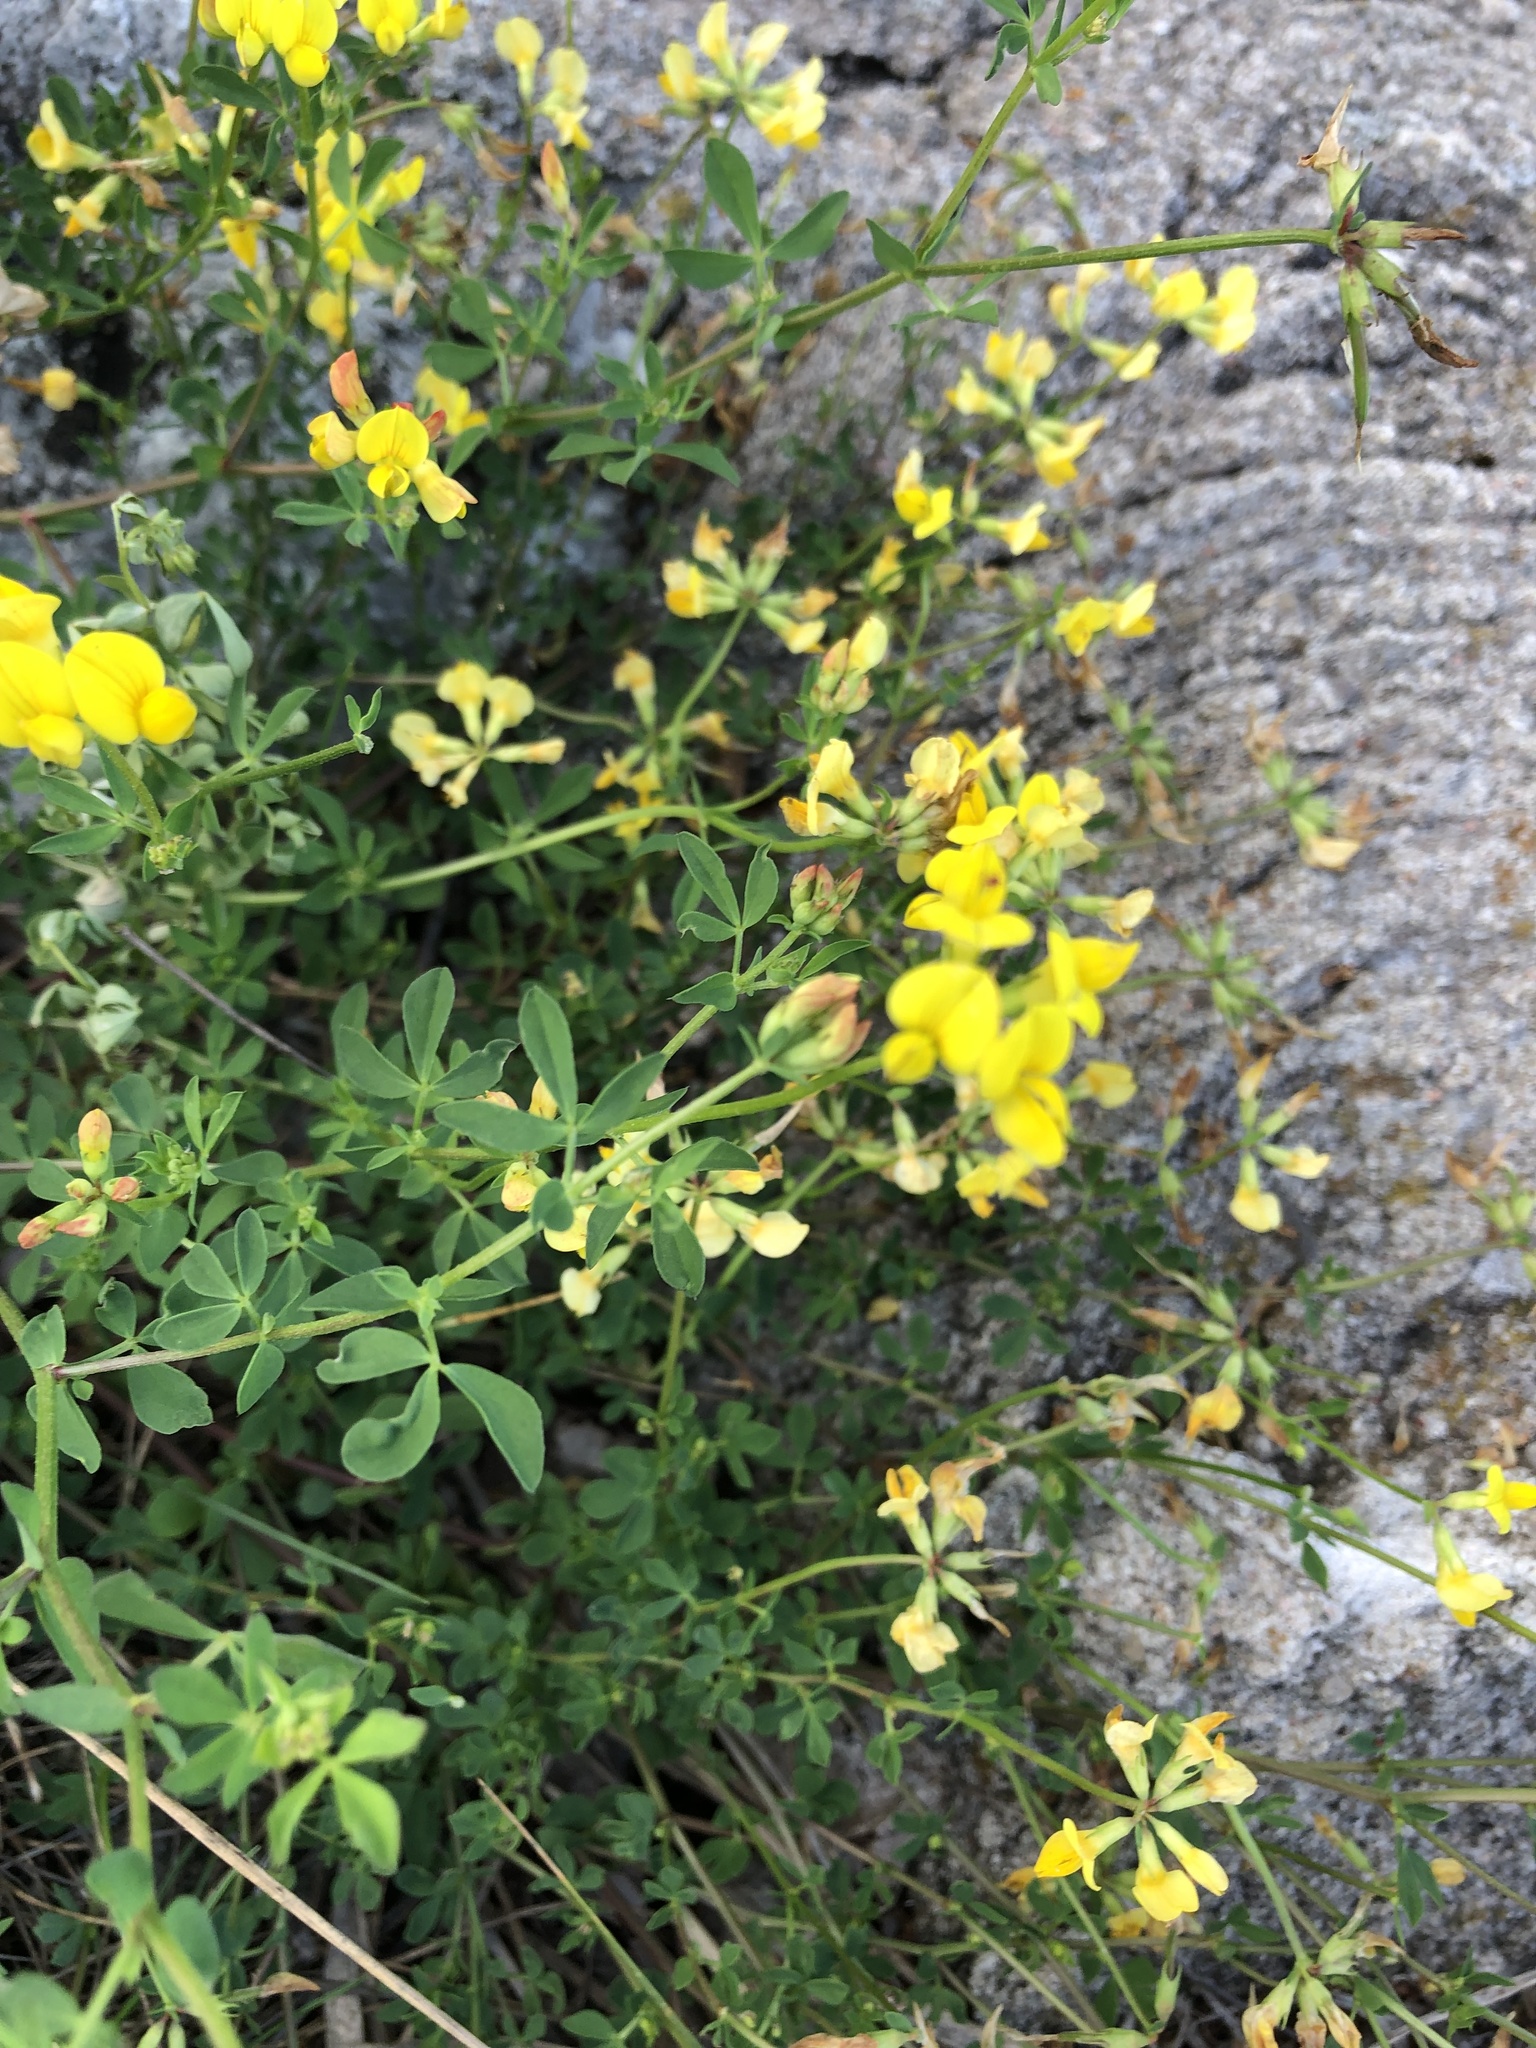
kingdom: Plantae
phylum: Tracheophyta
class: Magnoliopsida
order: Fabales
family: Fabaceae
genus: Lotus
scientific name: Lotus corniculatus
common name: Common bird's-foot-trefoil
